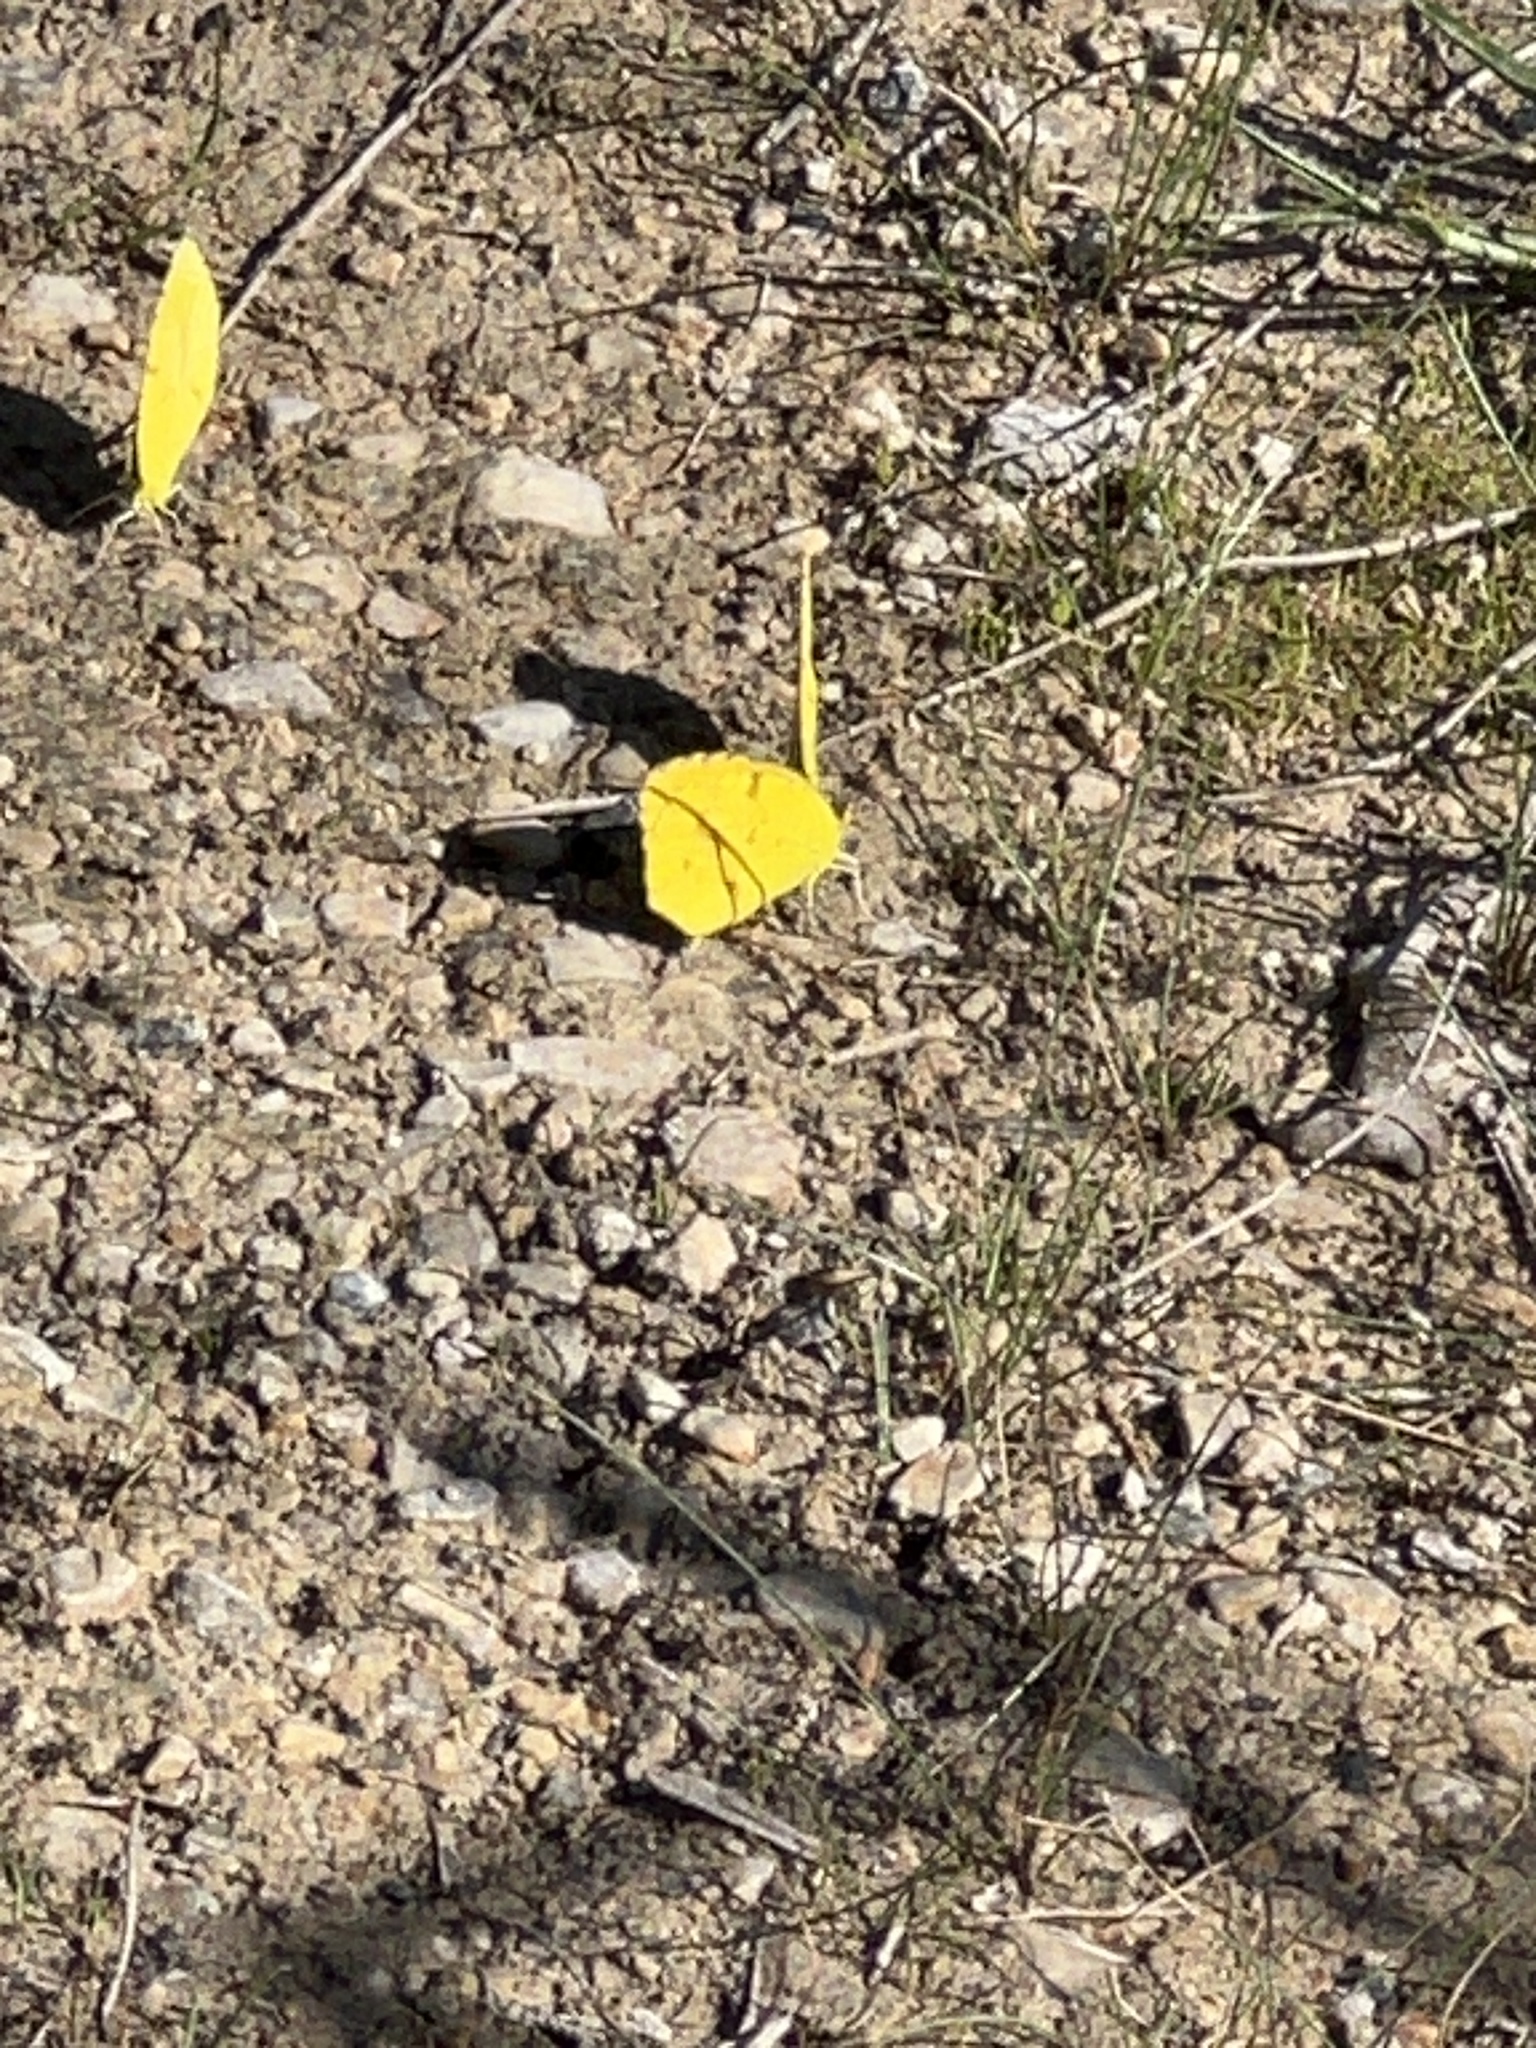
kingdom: Animalia
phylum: Arthropoda
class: Insecta
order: Lepidoptera
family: Pieridae
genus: Abaeis
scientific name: Abaeis nicippe
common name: Sleepy orange
